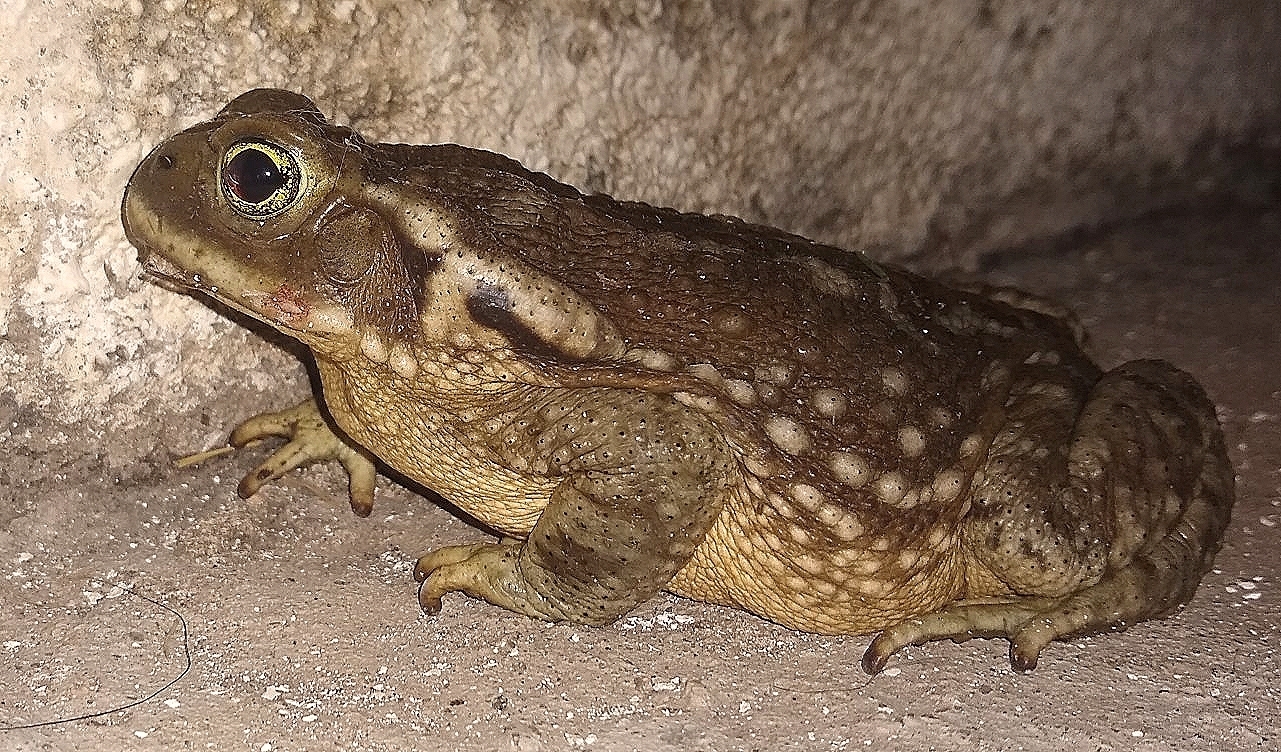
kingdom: Animalia
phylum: Chordata
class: Amphibia
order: Anura
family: Bufonidae
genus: Rhinella
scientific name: Rhinella arenarum
